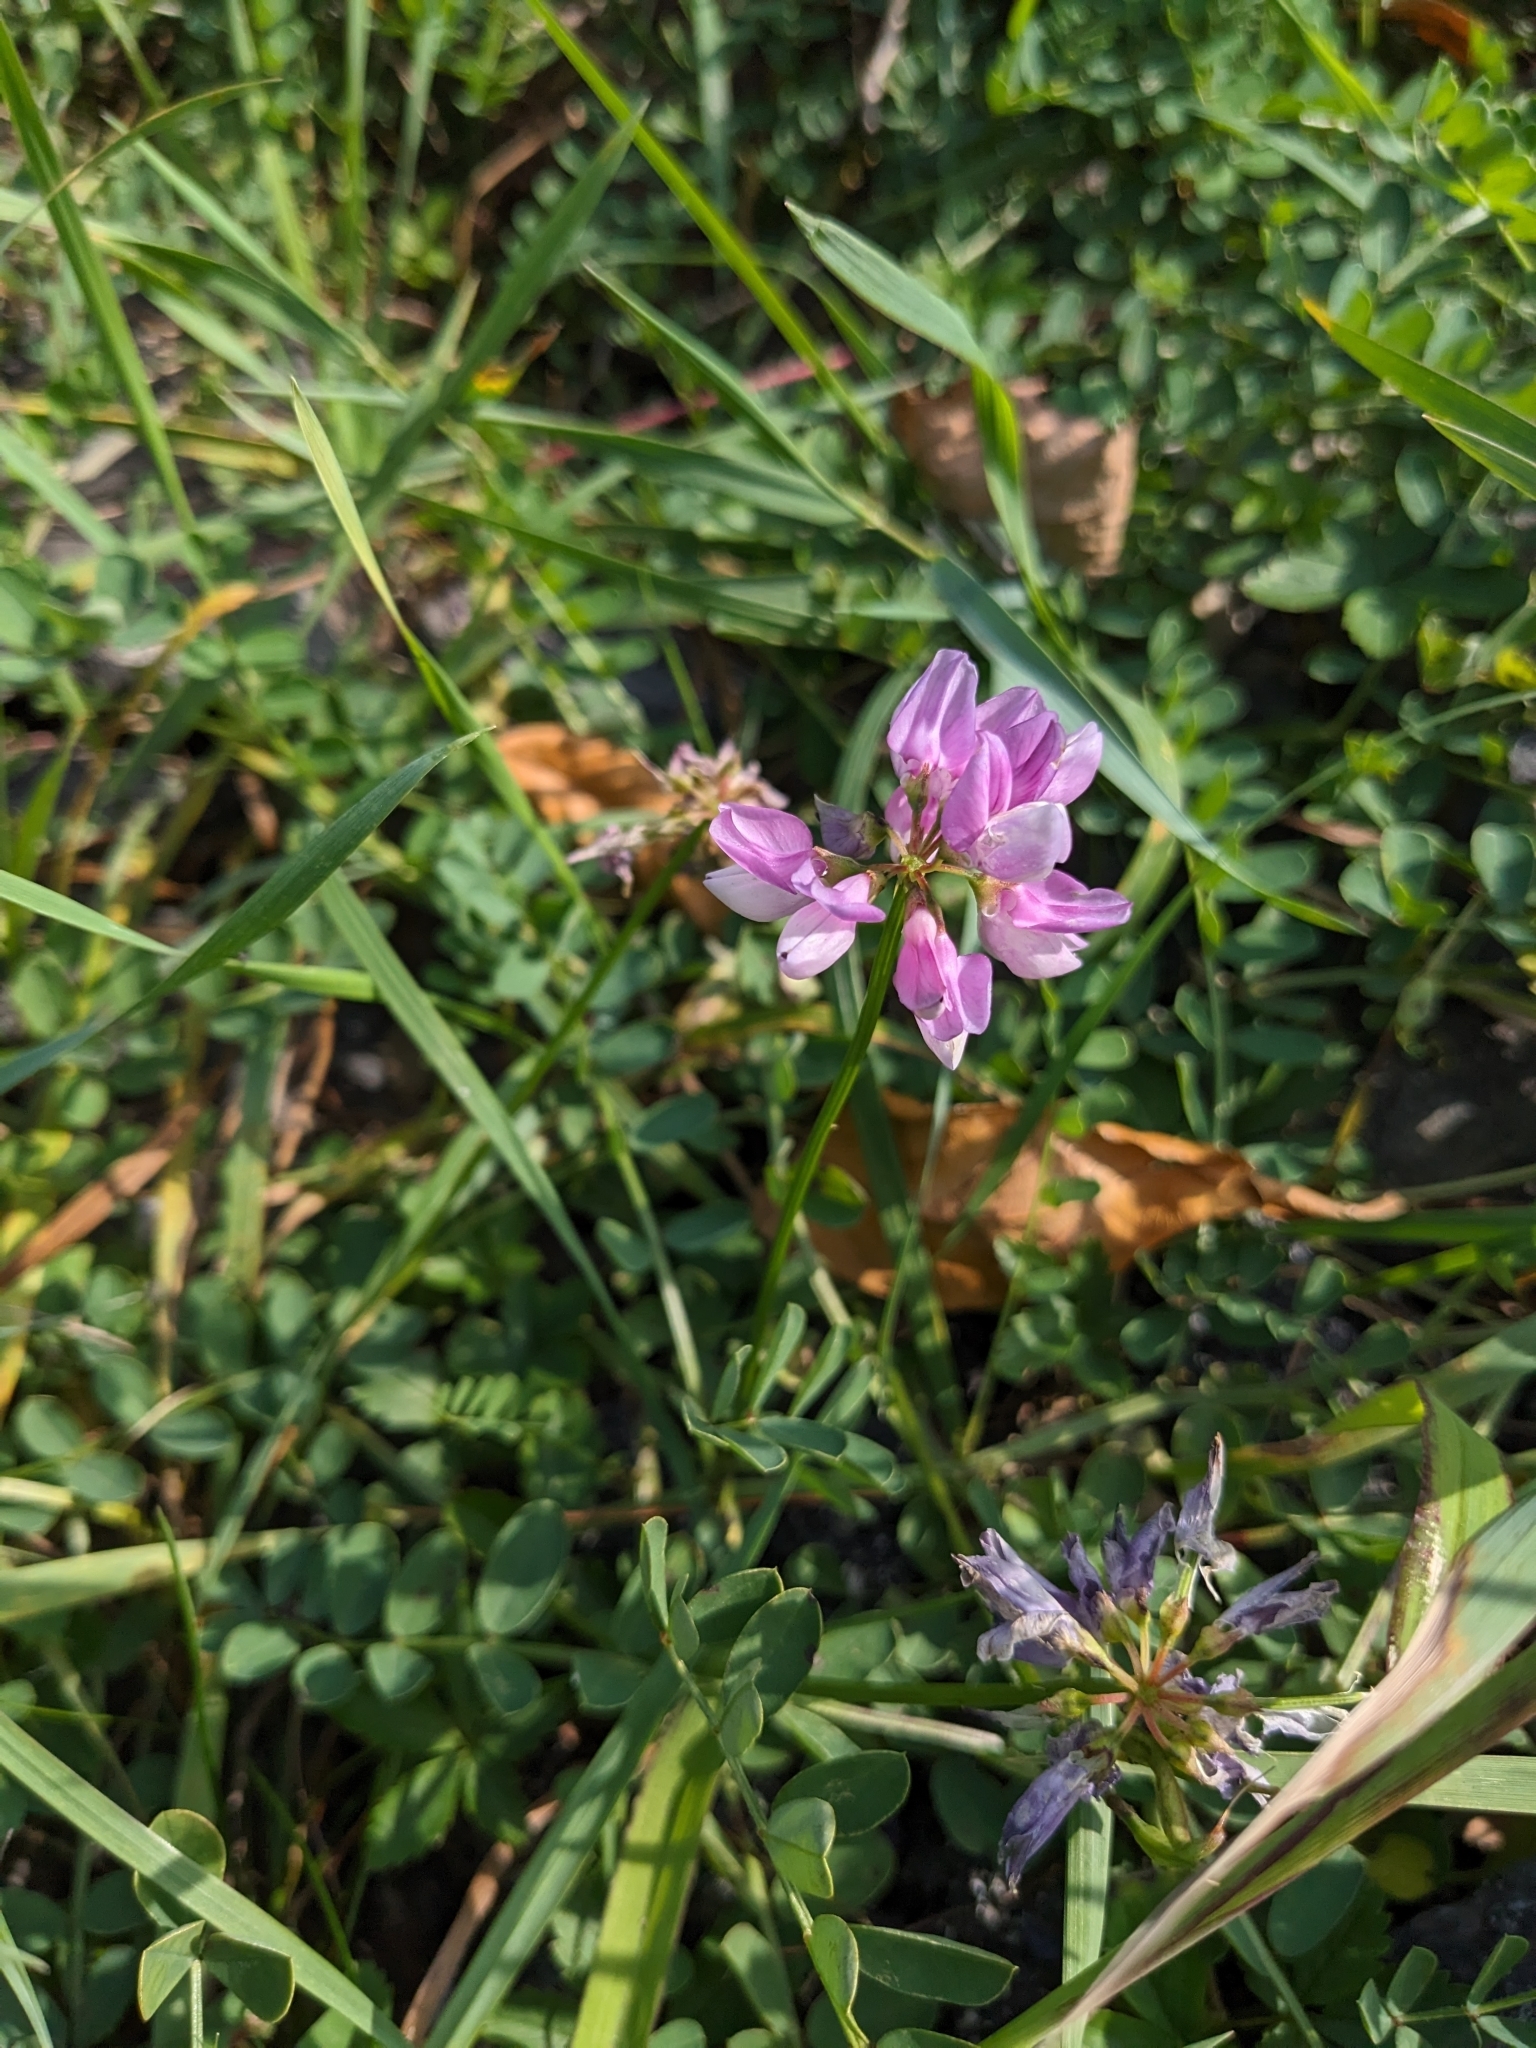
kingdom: Plantae
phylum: Tracheophyta
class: Magnoliopsida
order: Fabales
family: Fabaceae
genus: Coronilla
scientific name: Coronilla varia
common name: Crownvetch
